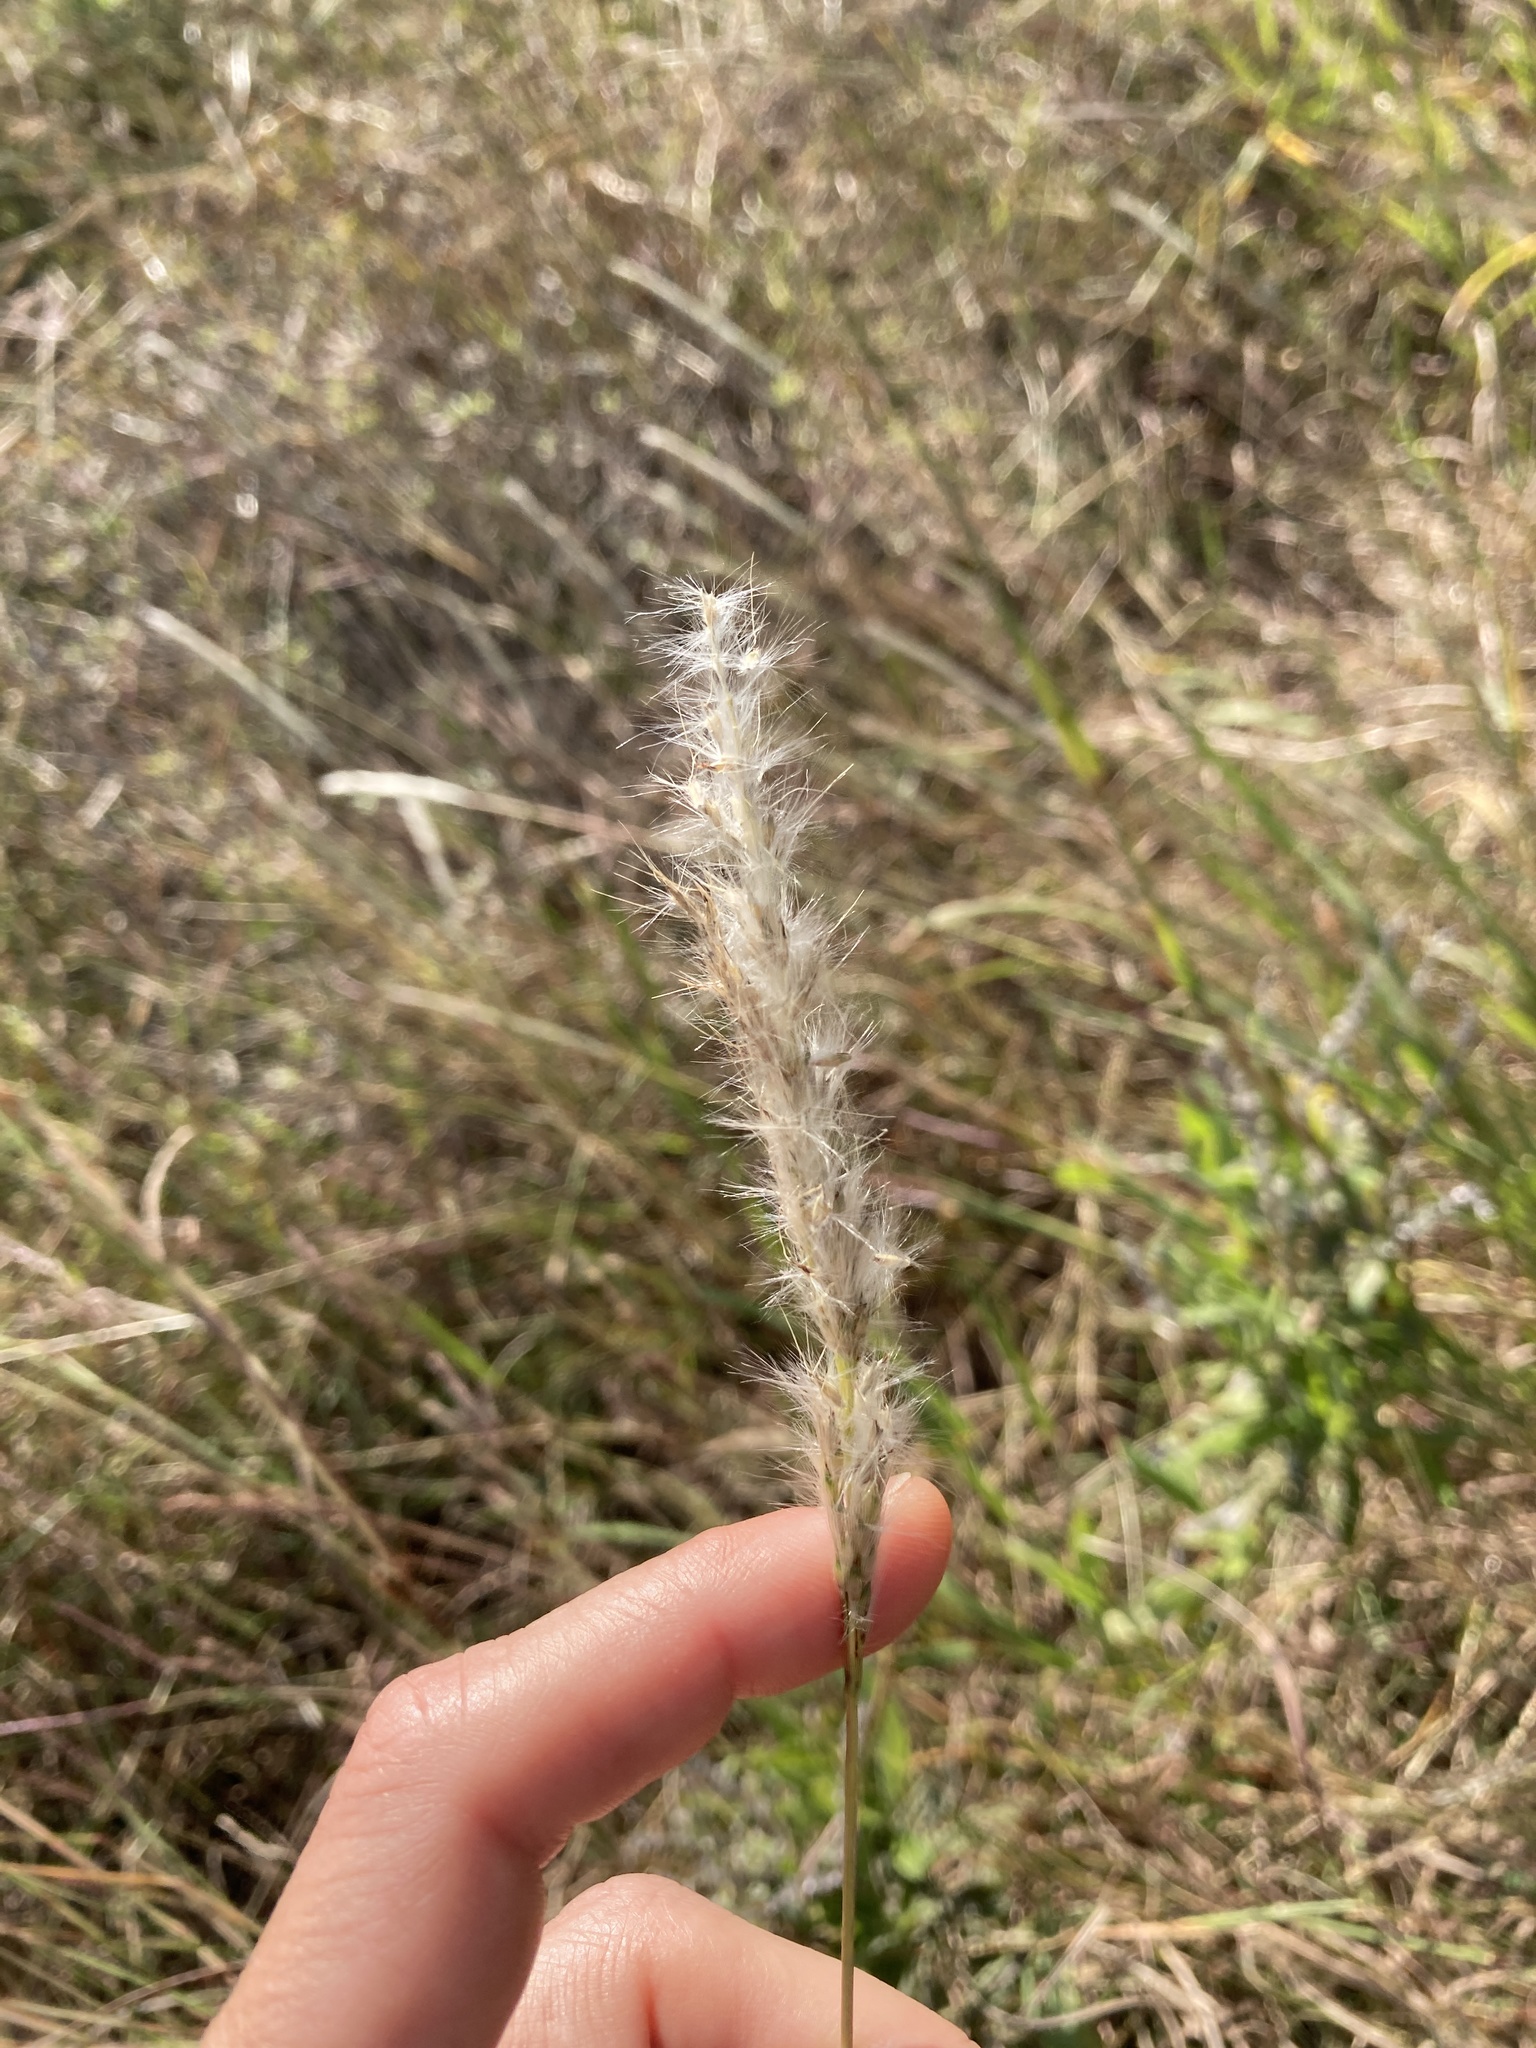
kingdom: Plantae
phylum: Tracheophyta
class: Liliopsida
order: Poales
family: Poaceae
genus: Bothriochloa
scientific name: Bothriochloa torreyana
